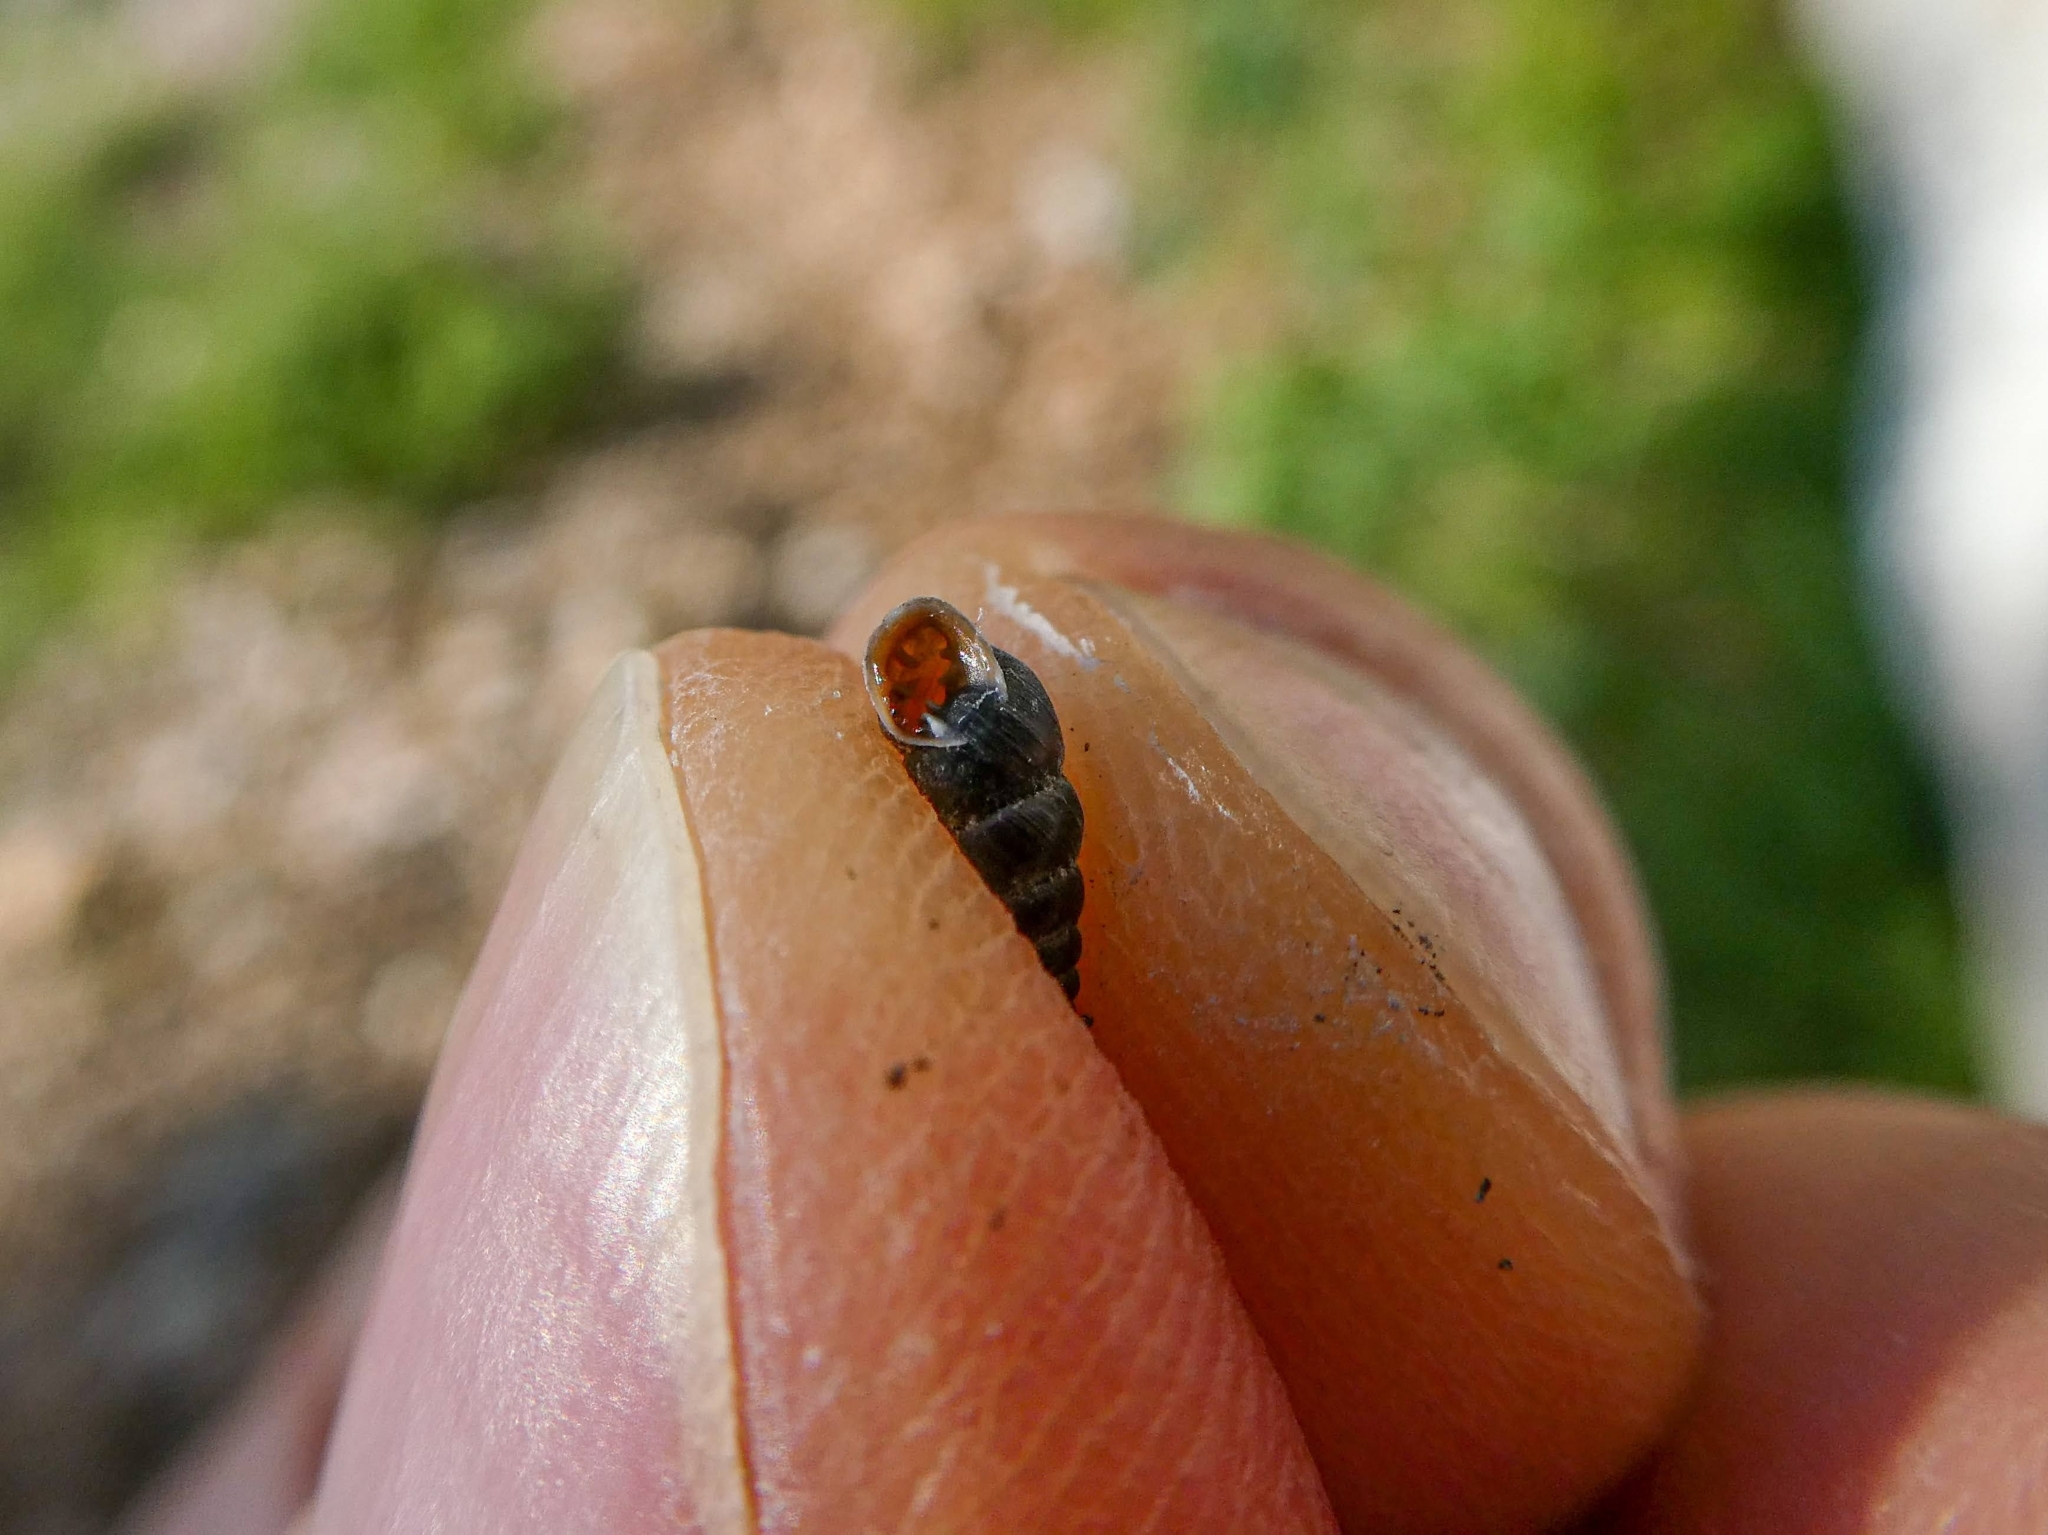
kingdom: Animalia
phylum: Mollusca
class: Gastropoda
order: Stylommatophora
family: Chondrinidae
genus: Chondrina
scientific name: Chondrina arcadica
